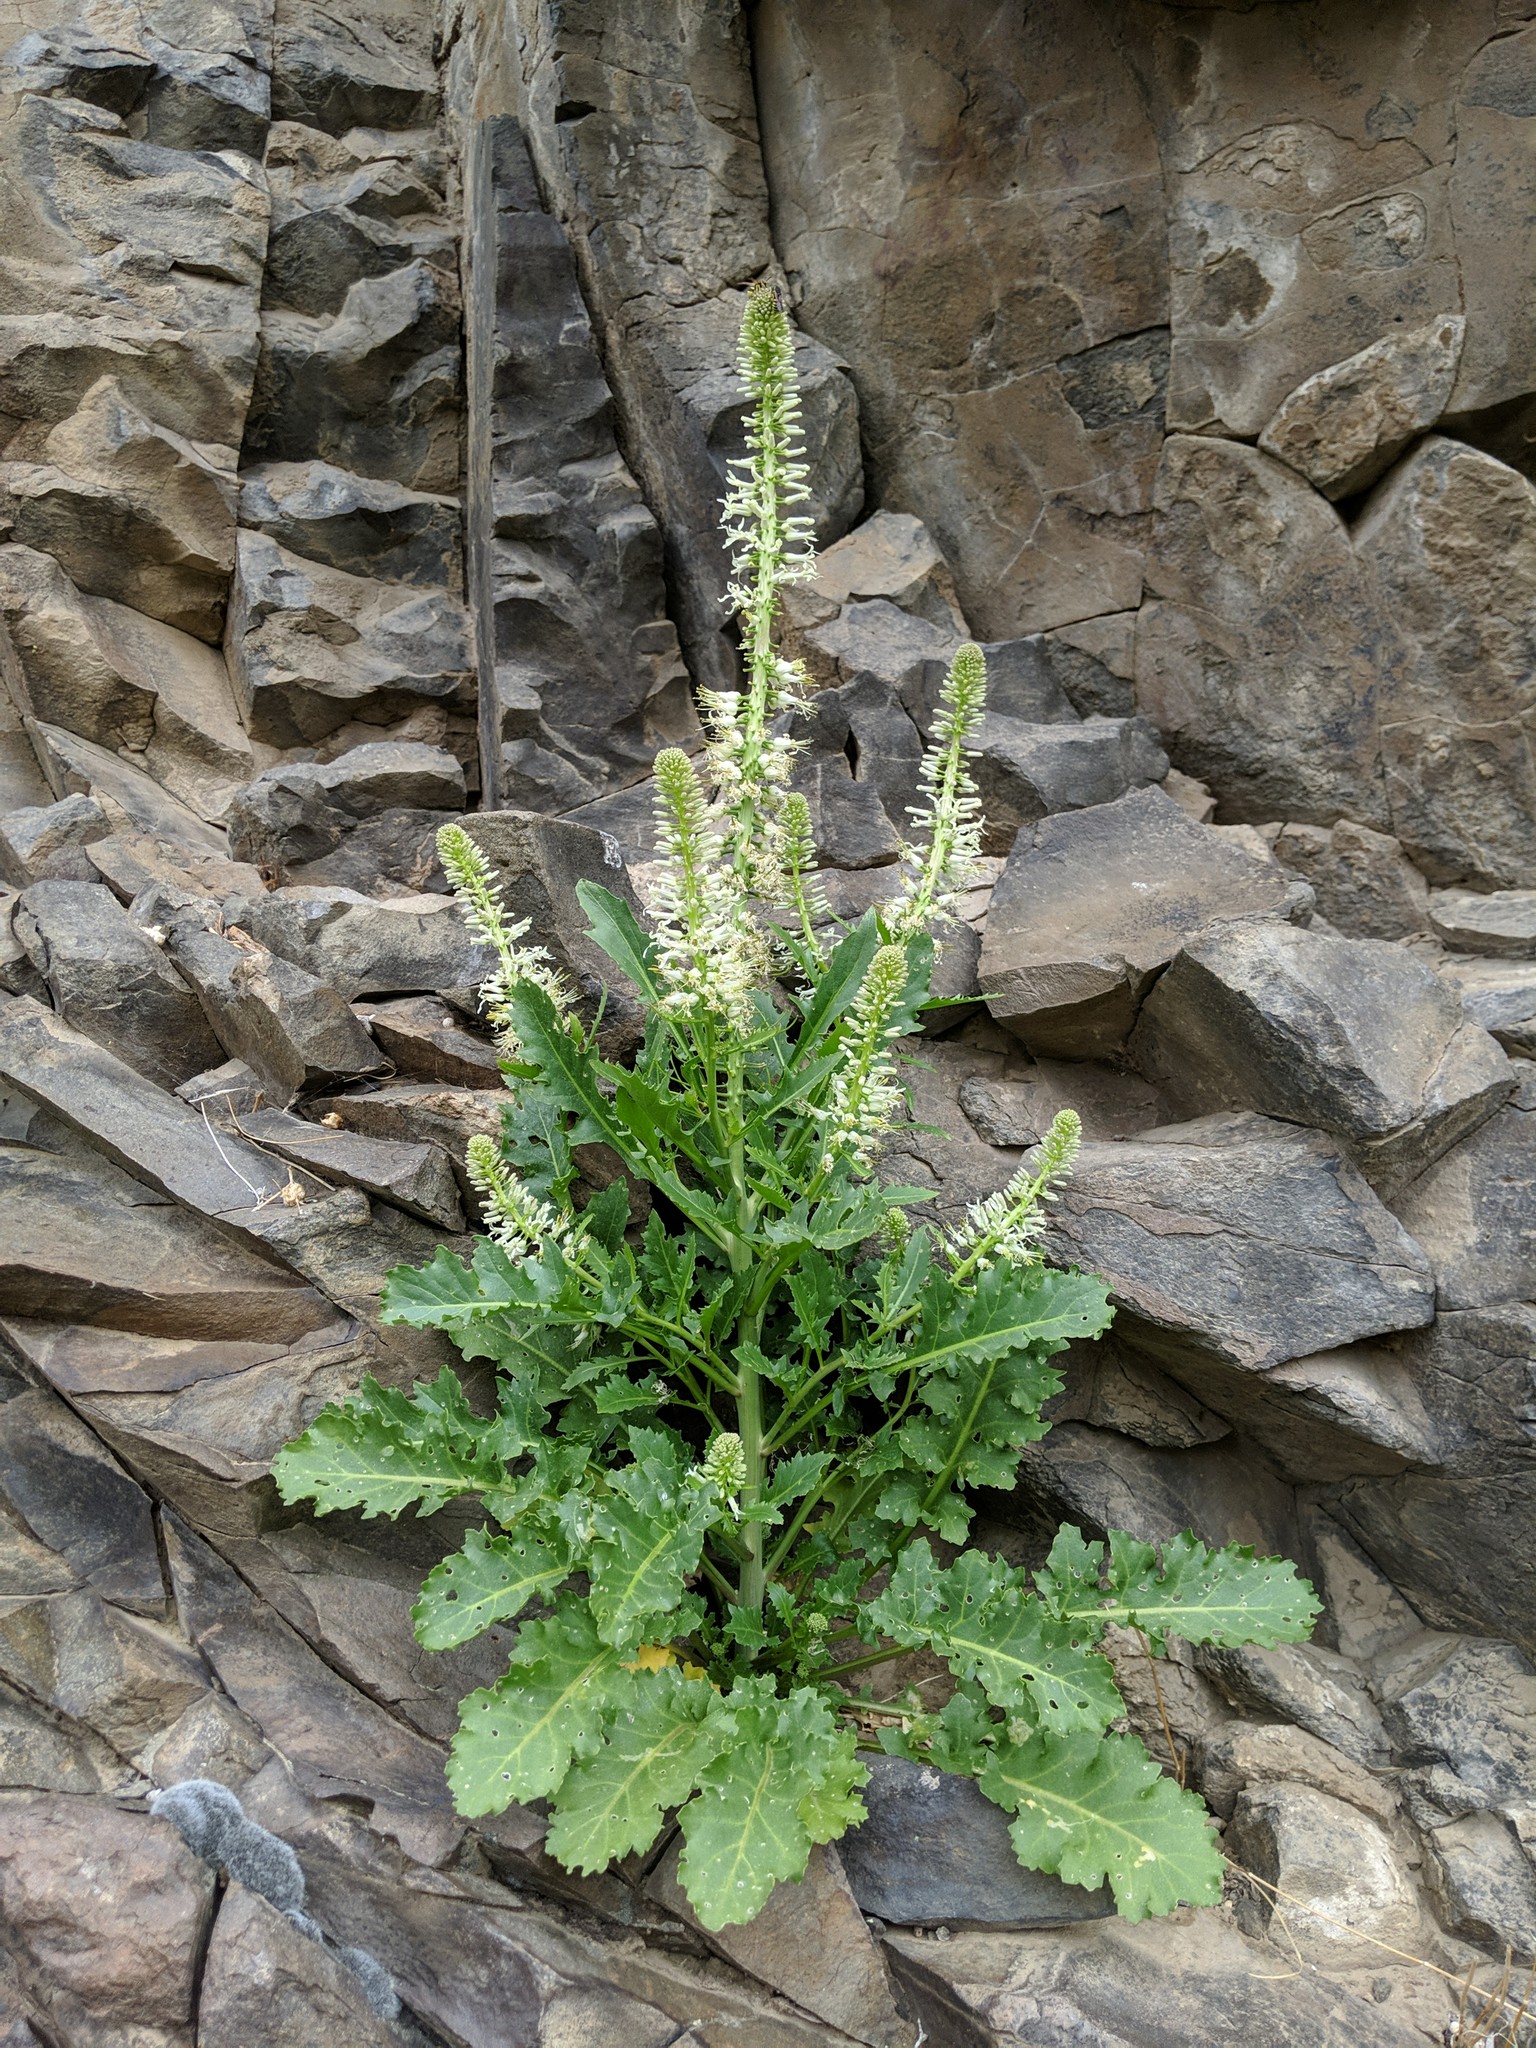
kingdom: Plantae
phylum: Tracheophyta
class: Magnoliopsida
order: Brassicales
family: Brassicaceae
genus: Thelypodium
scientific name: Thelypodium laciniatum
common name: Cut-leaved thelypody
